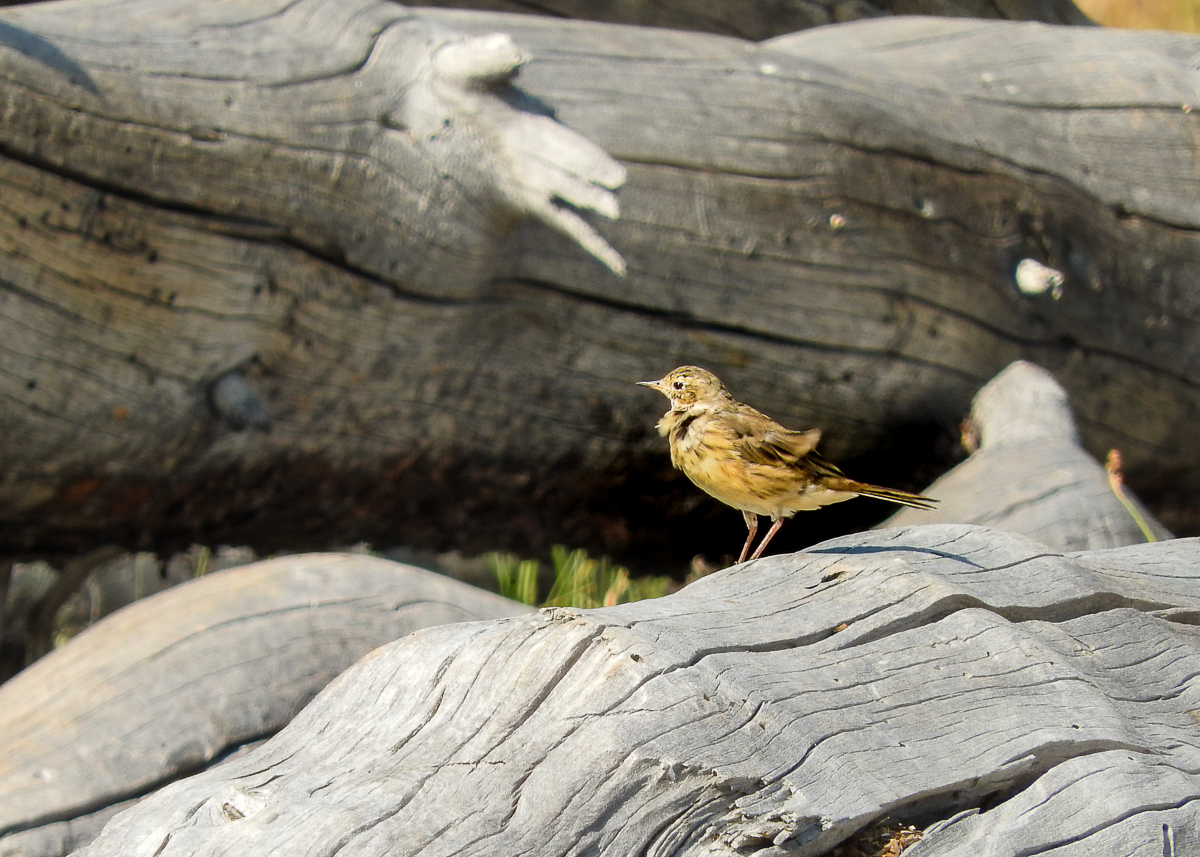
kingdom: Animalia
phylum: Chordata
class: Aves
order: Passeriformes
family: Motacillidae
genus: Anthus
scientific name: Anthus rubescens
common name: Buff-bellied pipit
